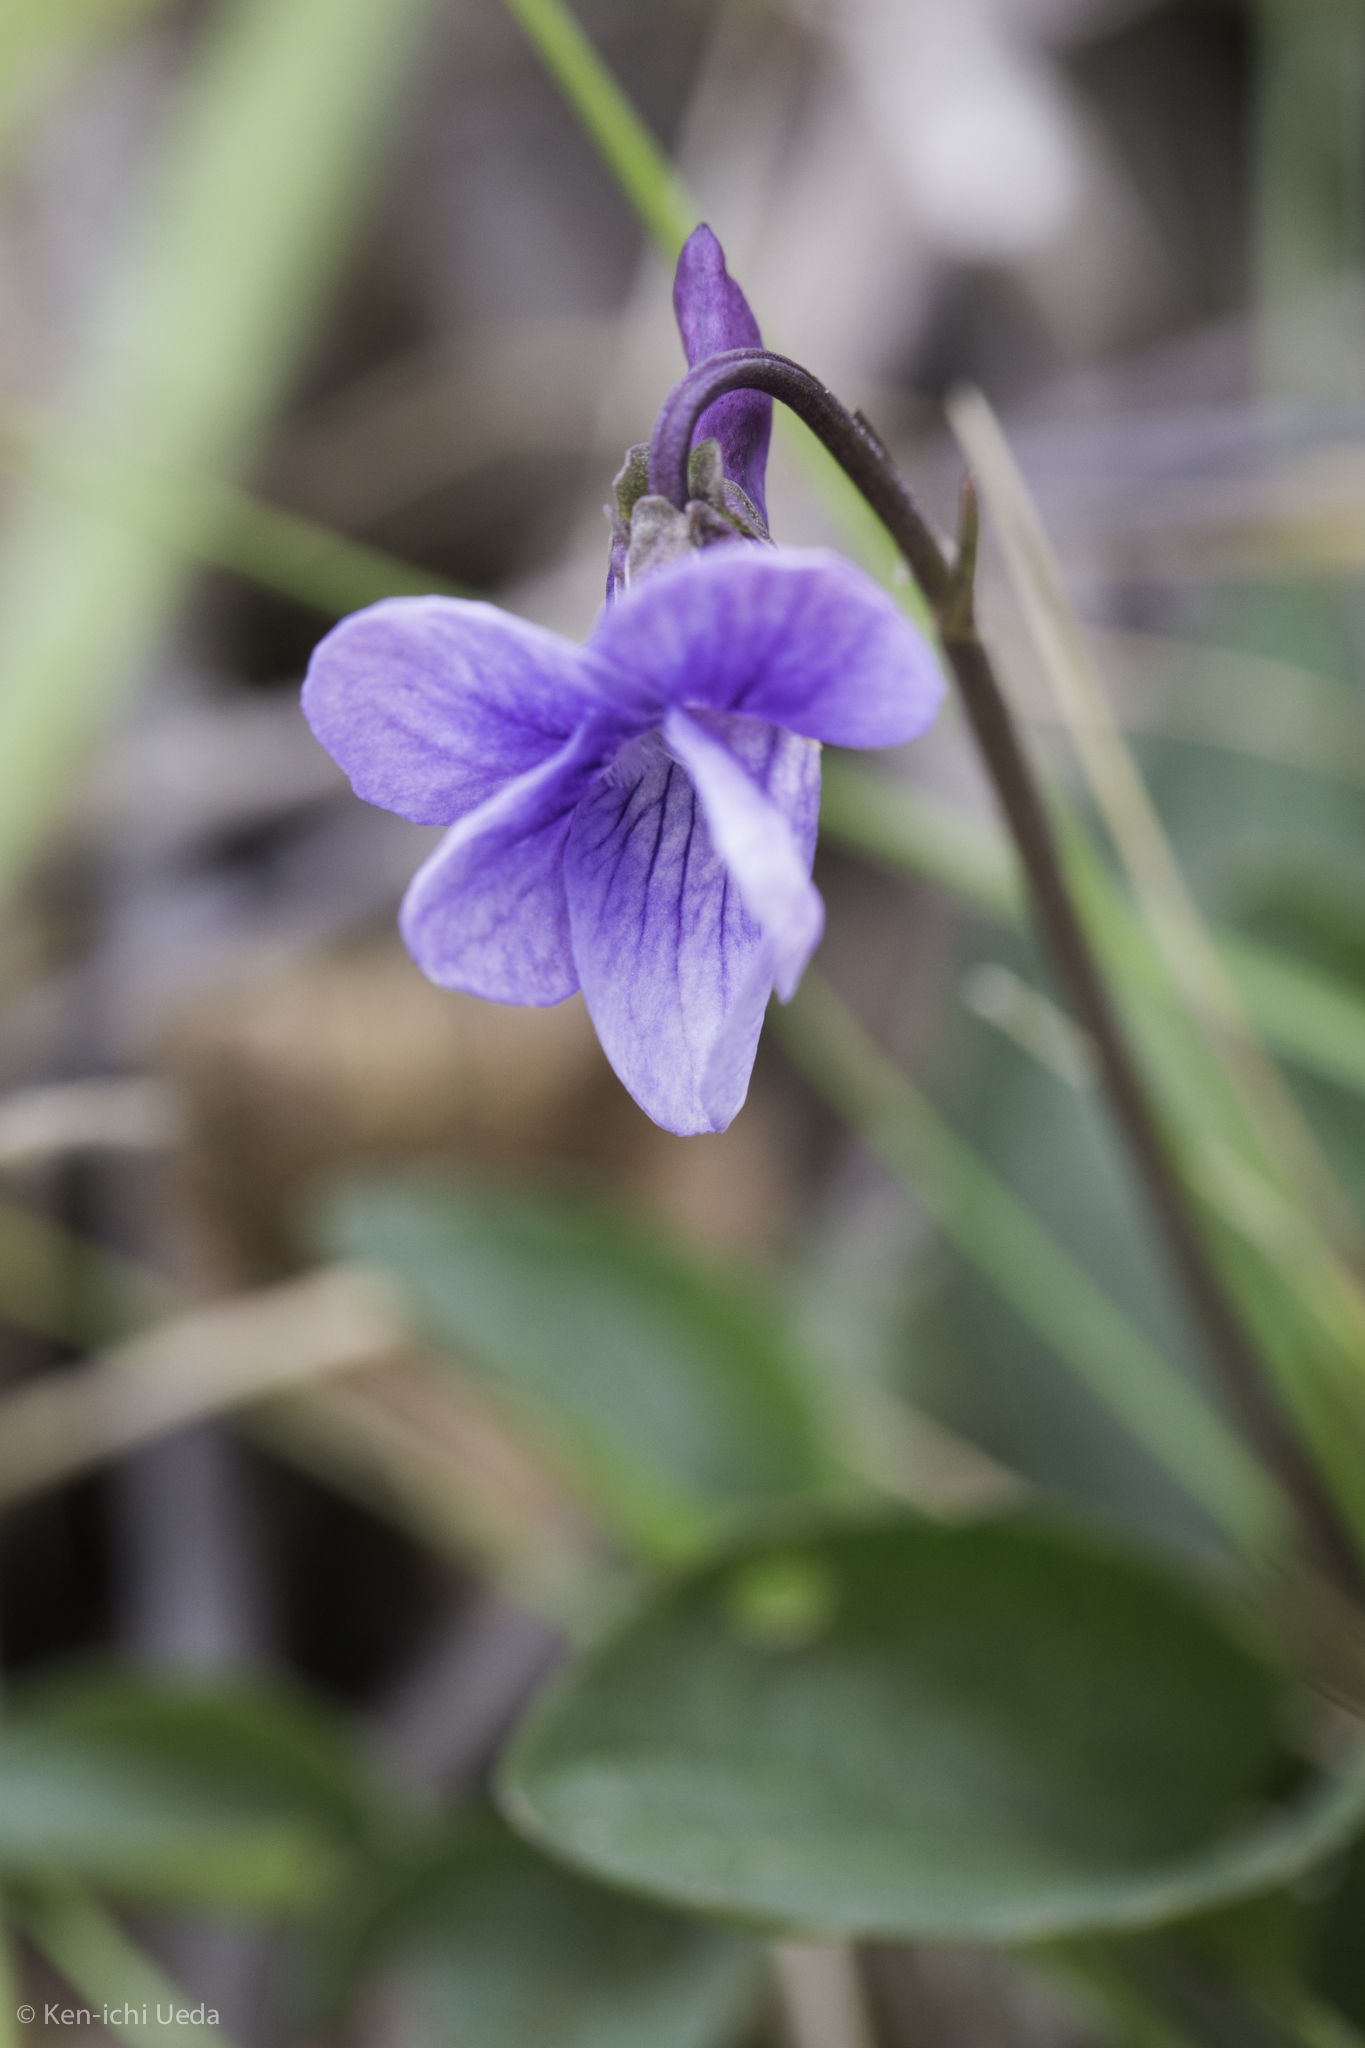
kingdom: Plantae
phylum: Tracheophyta
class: Magnoliopsida
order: Malpighiales
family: Violaceae
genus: Viola
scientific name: Viola adunca
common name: Sand violet
